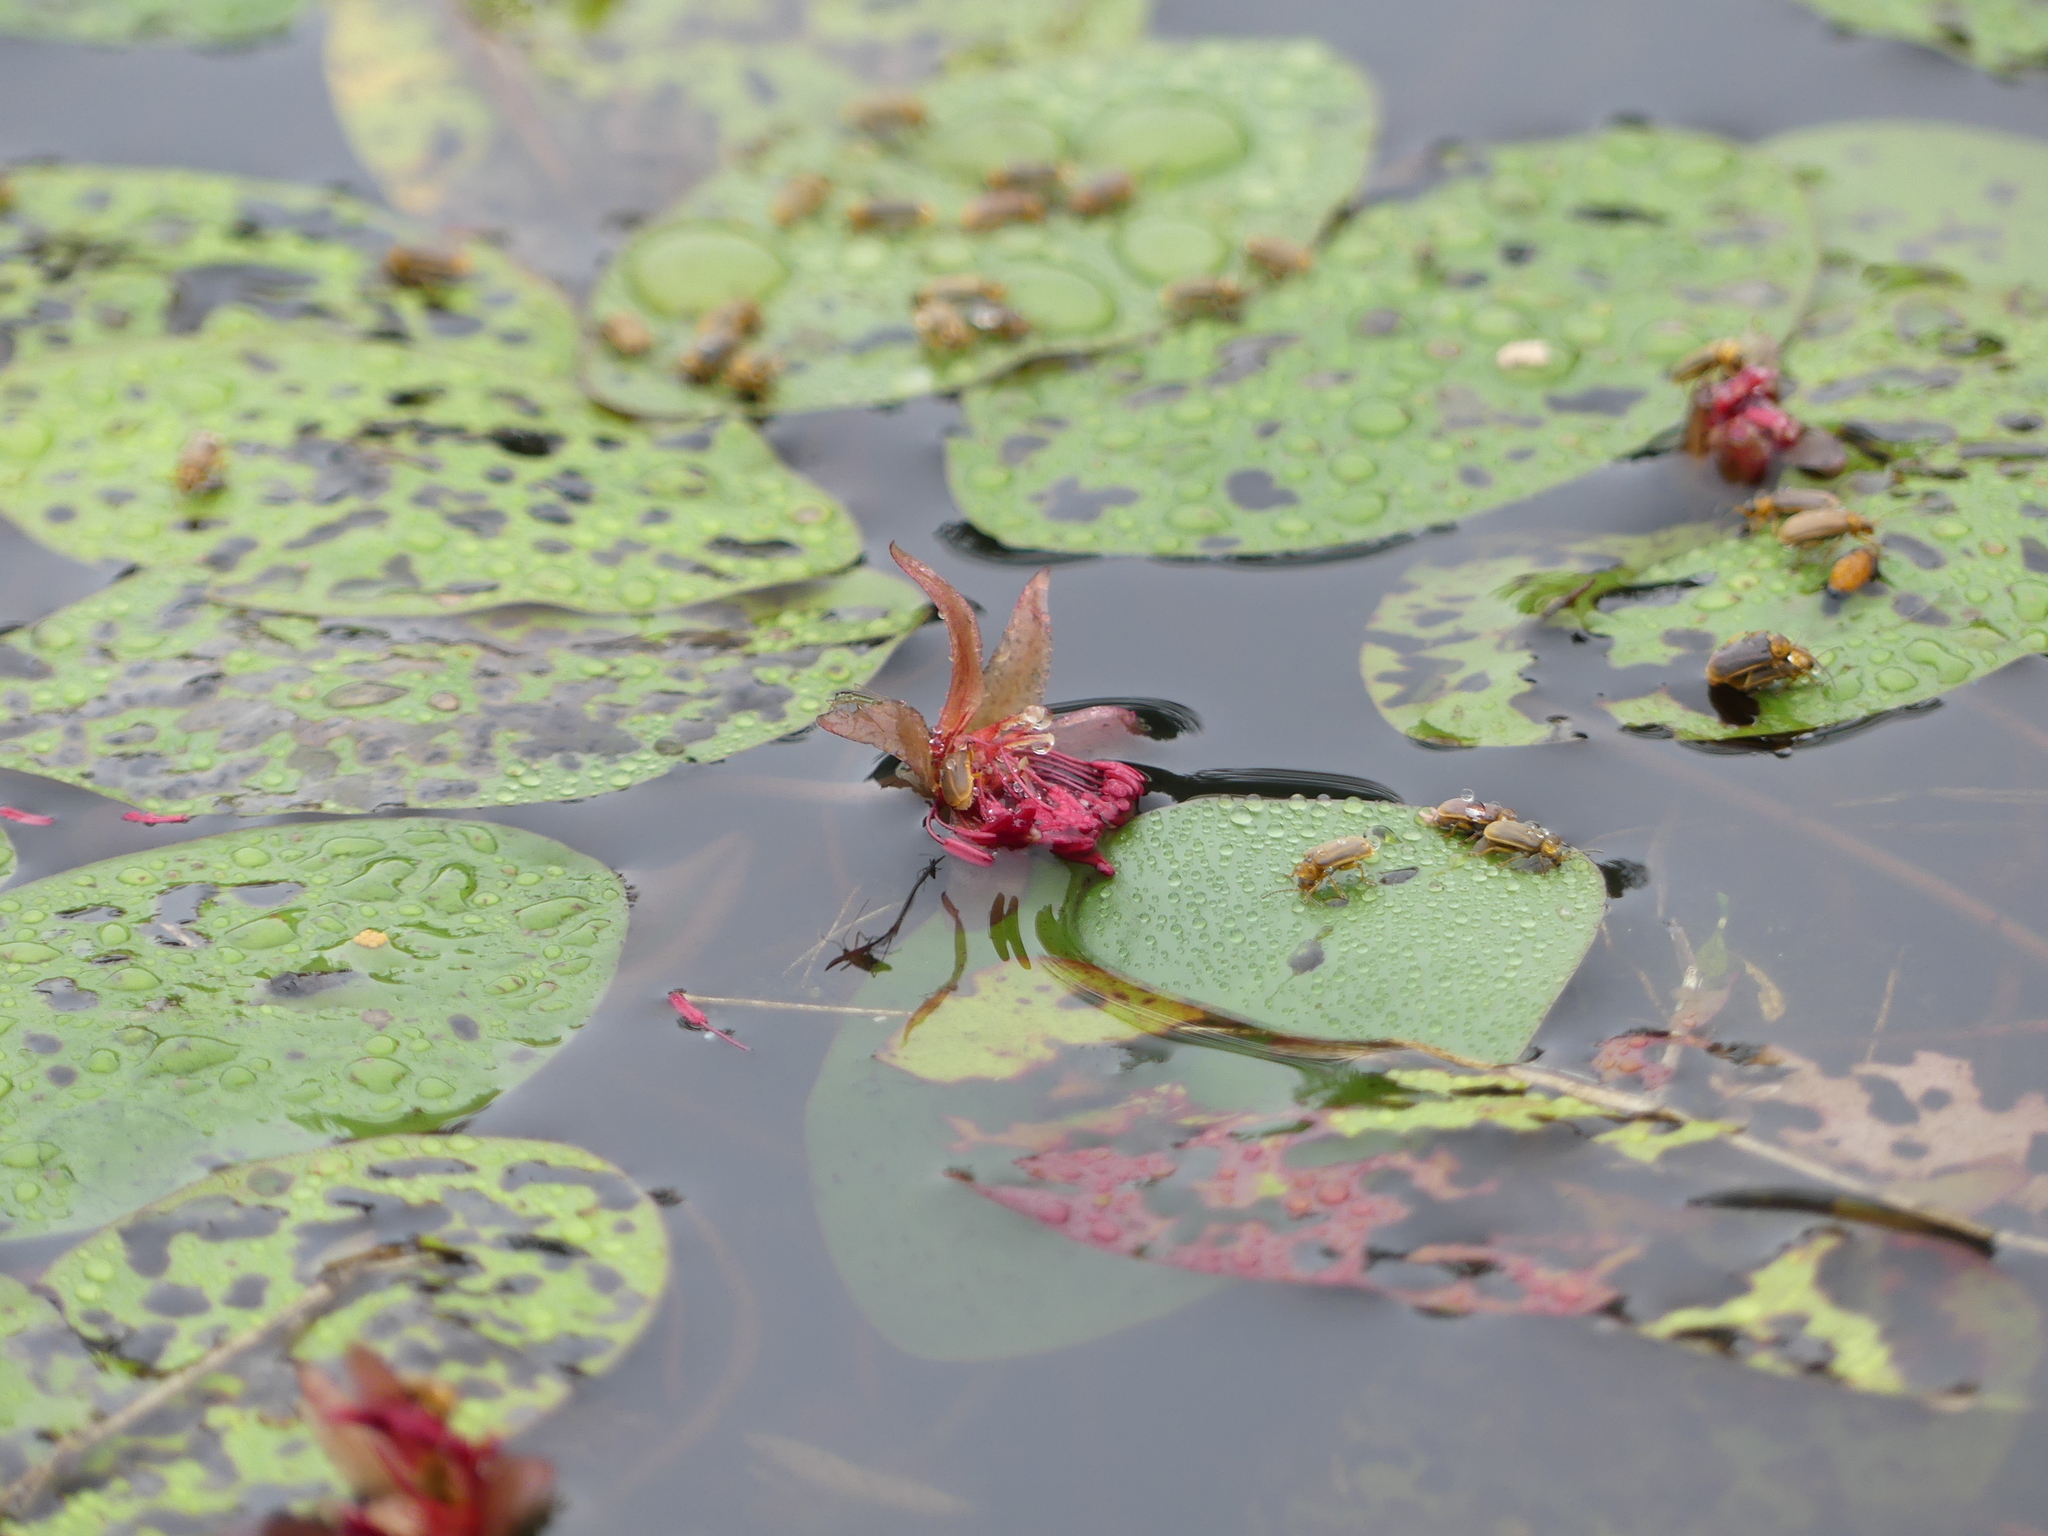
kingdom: Plantae
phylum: Tracheophyta
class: Magnoliopsida
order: Nymphaeales
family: Cabombaceae
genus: Brasenia
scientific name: Brasenia schreberi
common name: Water-shield
